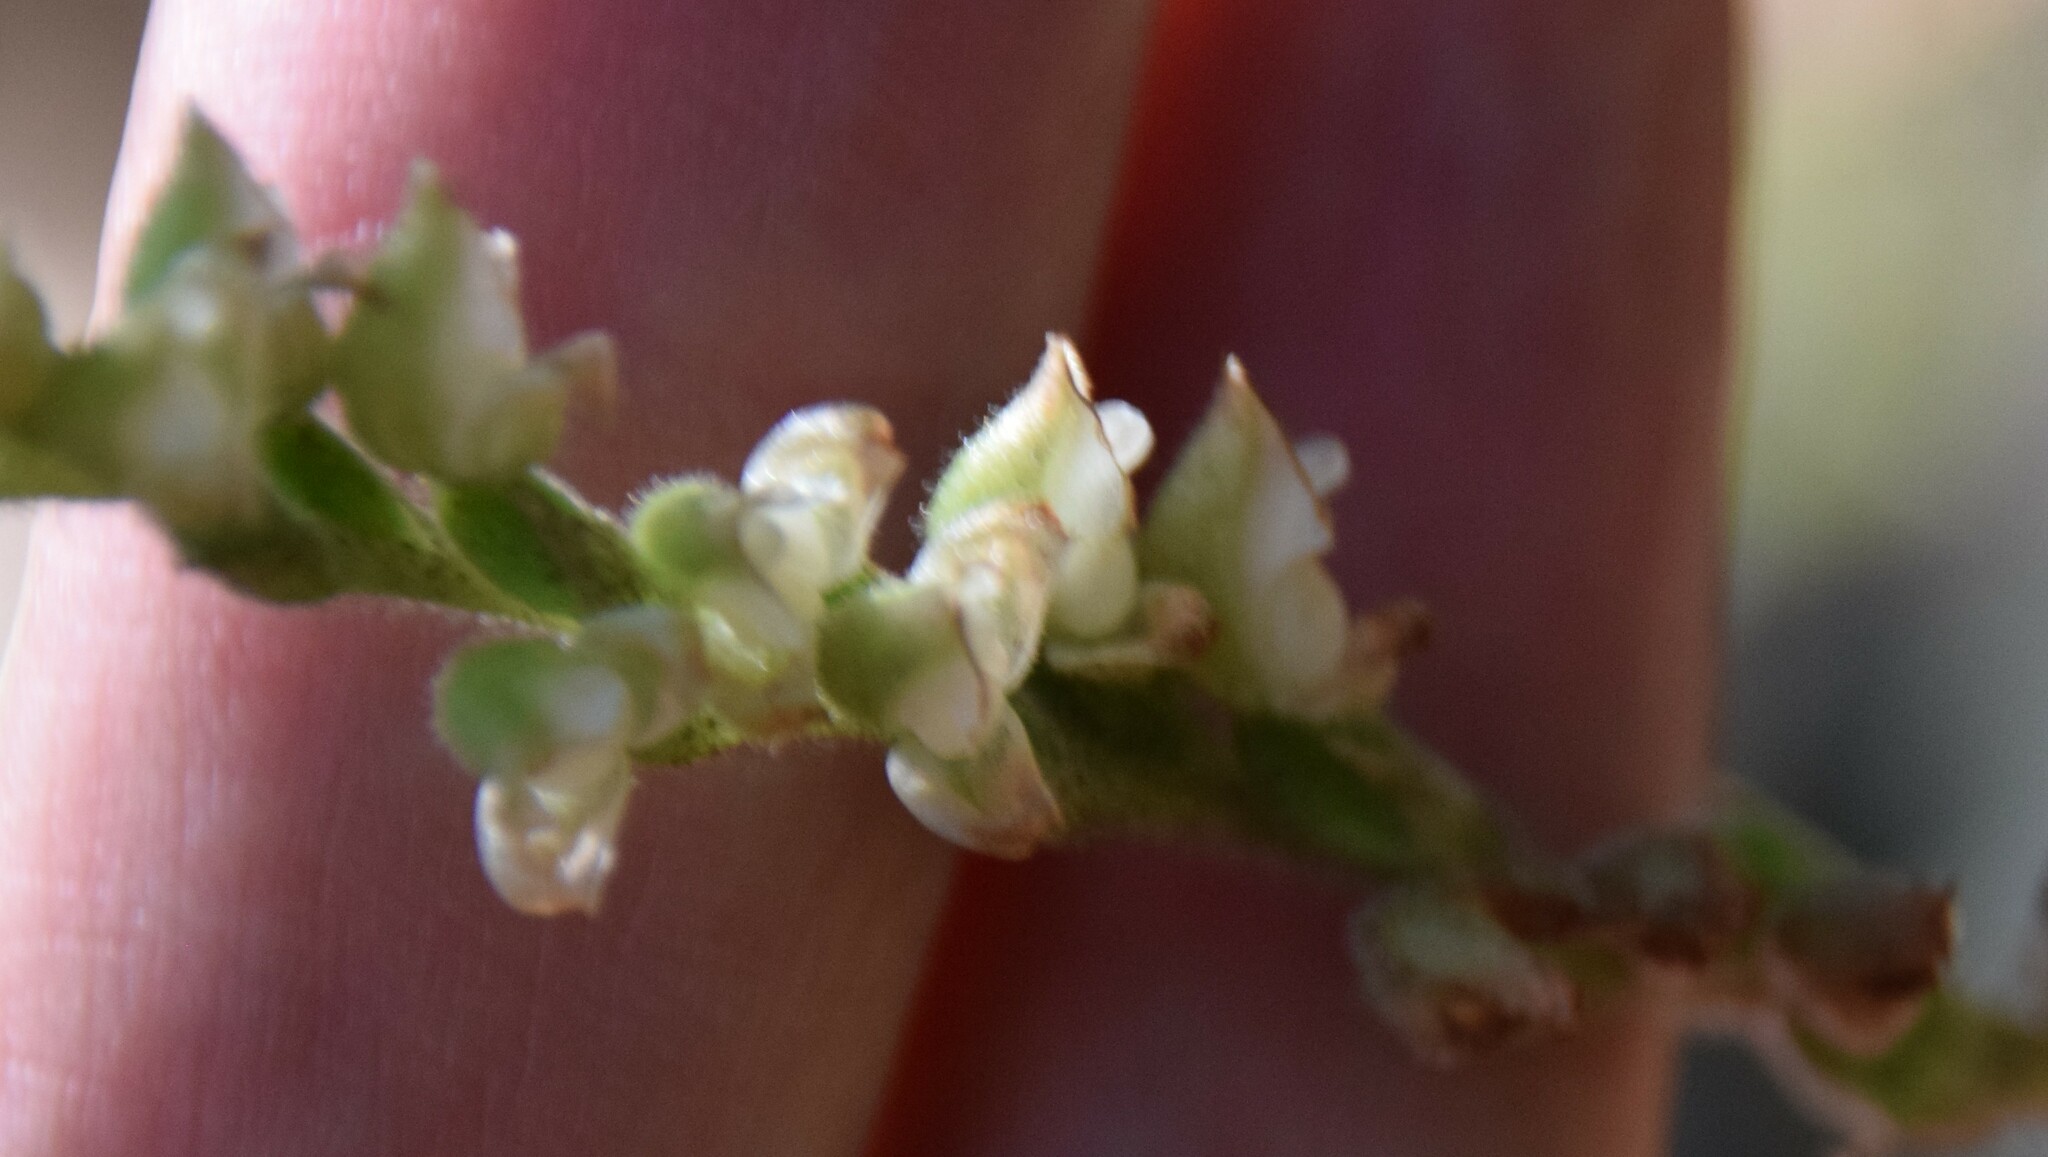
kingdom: Plantae
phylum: Tracheophyta
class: Liliopsida
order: Asparagales
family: Orchidaceae
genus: Goodyera
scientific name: Goodyera oblongifolia
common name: Giant rattlesnake-plantain
